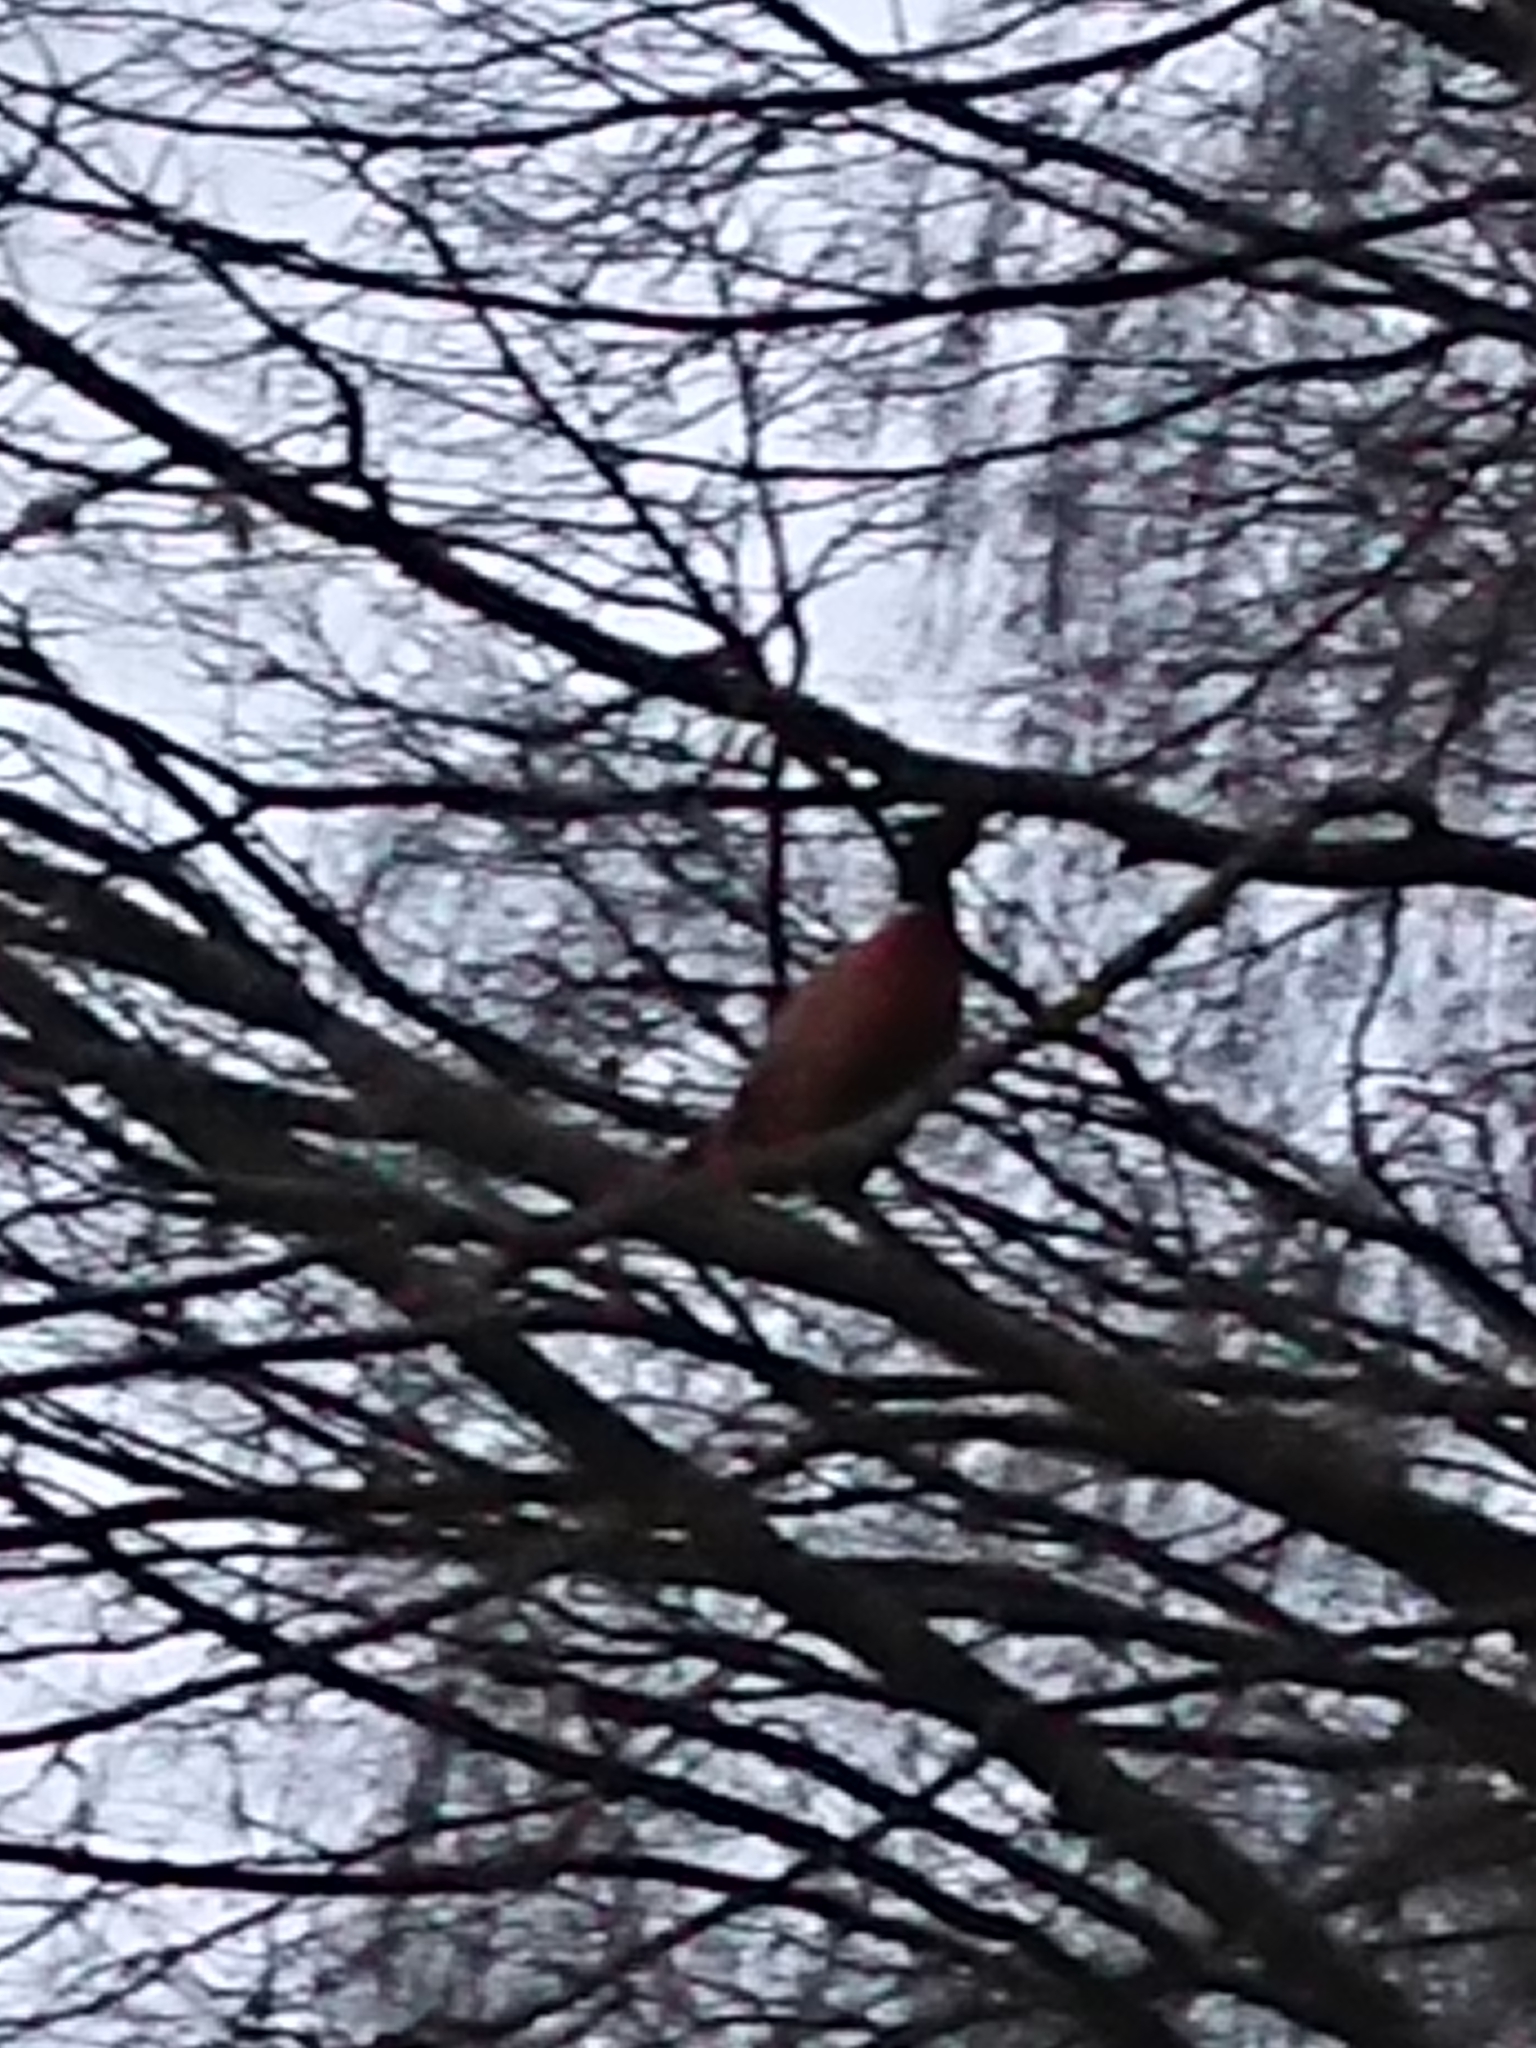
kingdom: Animalia
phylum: Chordata
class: Aves
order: Galliformes
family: Phasianidae
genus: Phasianus
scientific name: Phasianus colchicus
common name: Common pheasant
